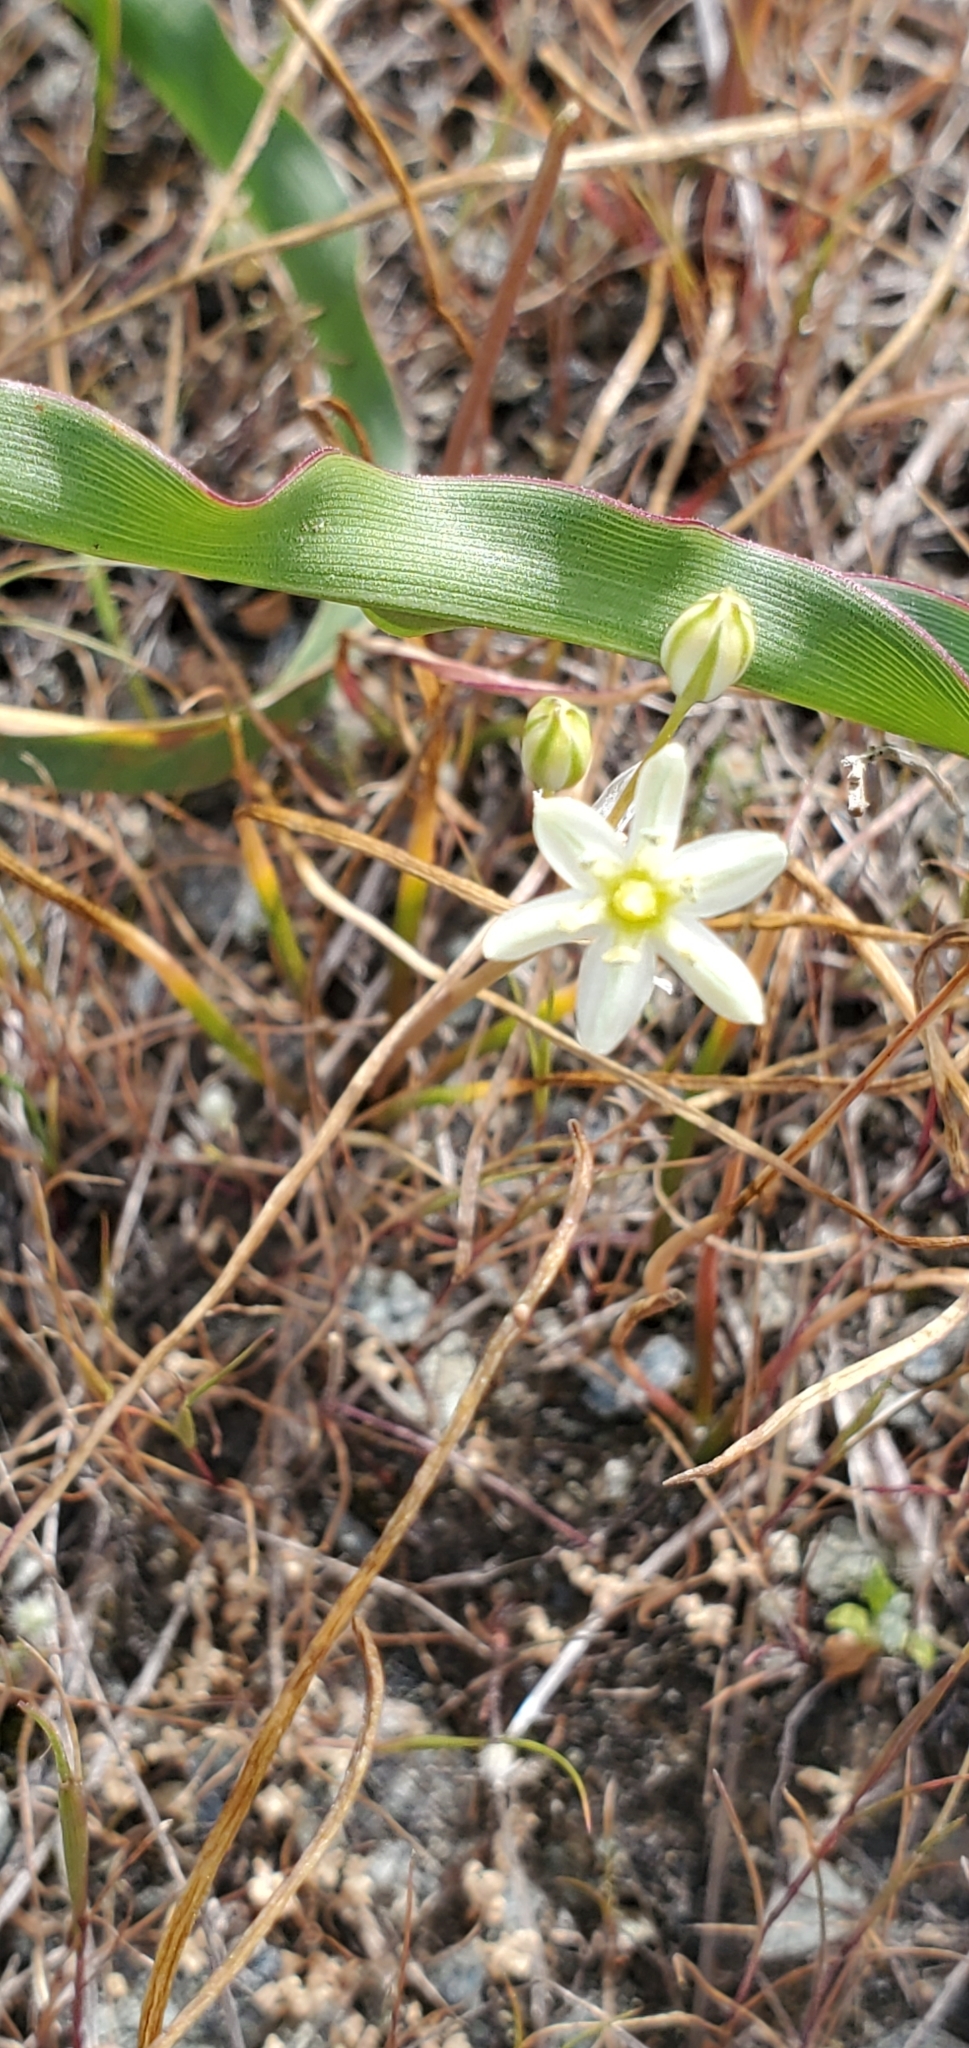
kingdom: Plantae
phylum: Tracheophyta
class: Liliopsida
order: Asparagales
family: Asparagaceae
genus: Muilla
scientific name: Muilla maritima
